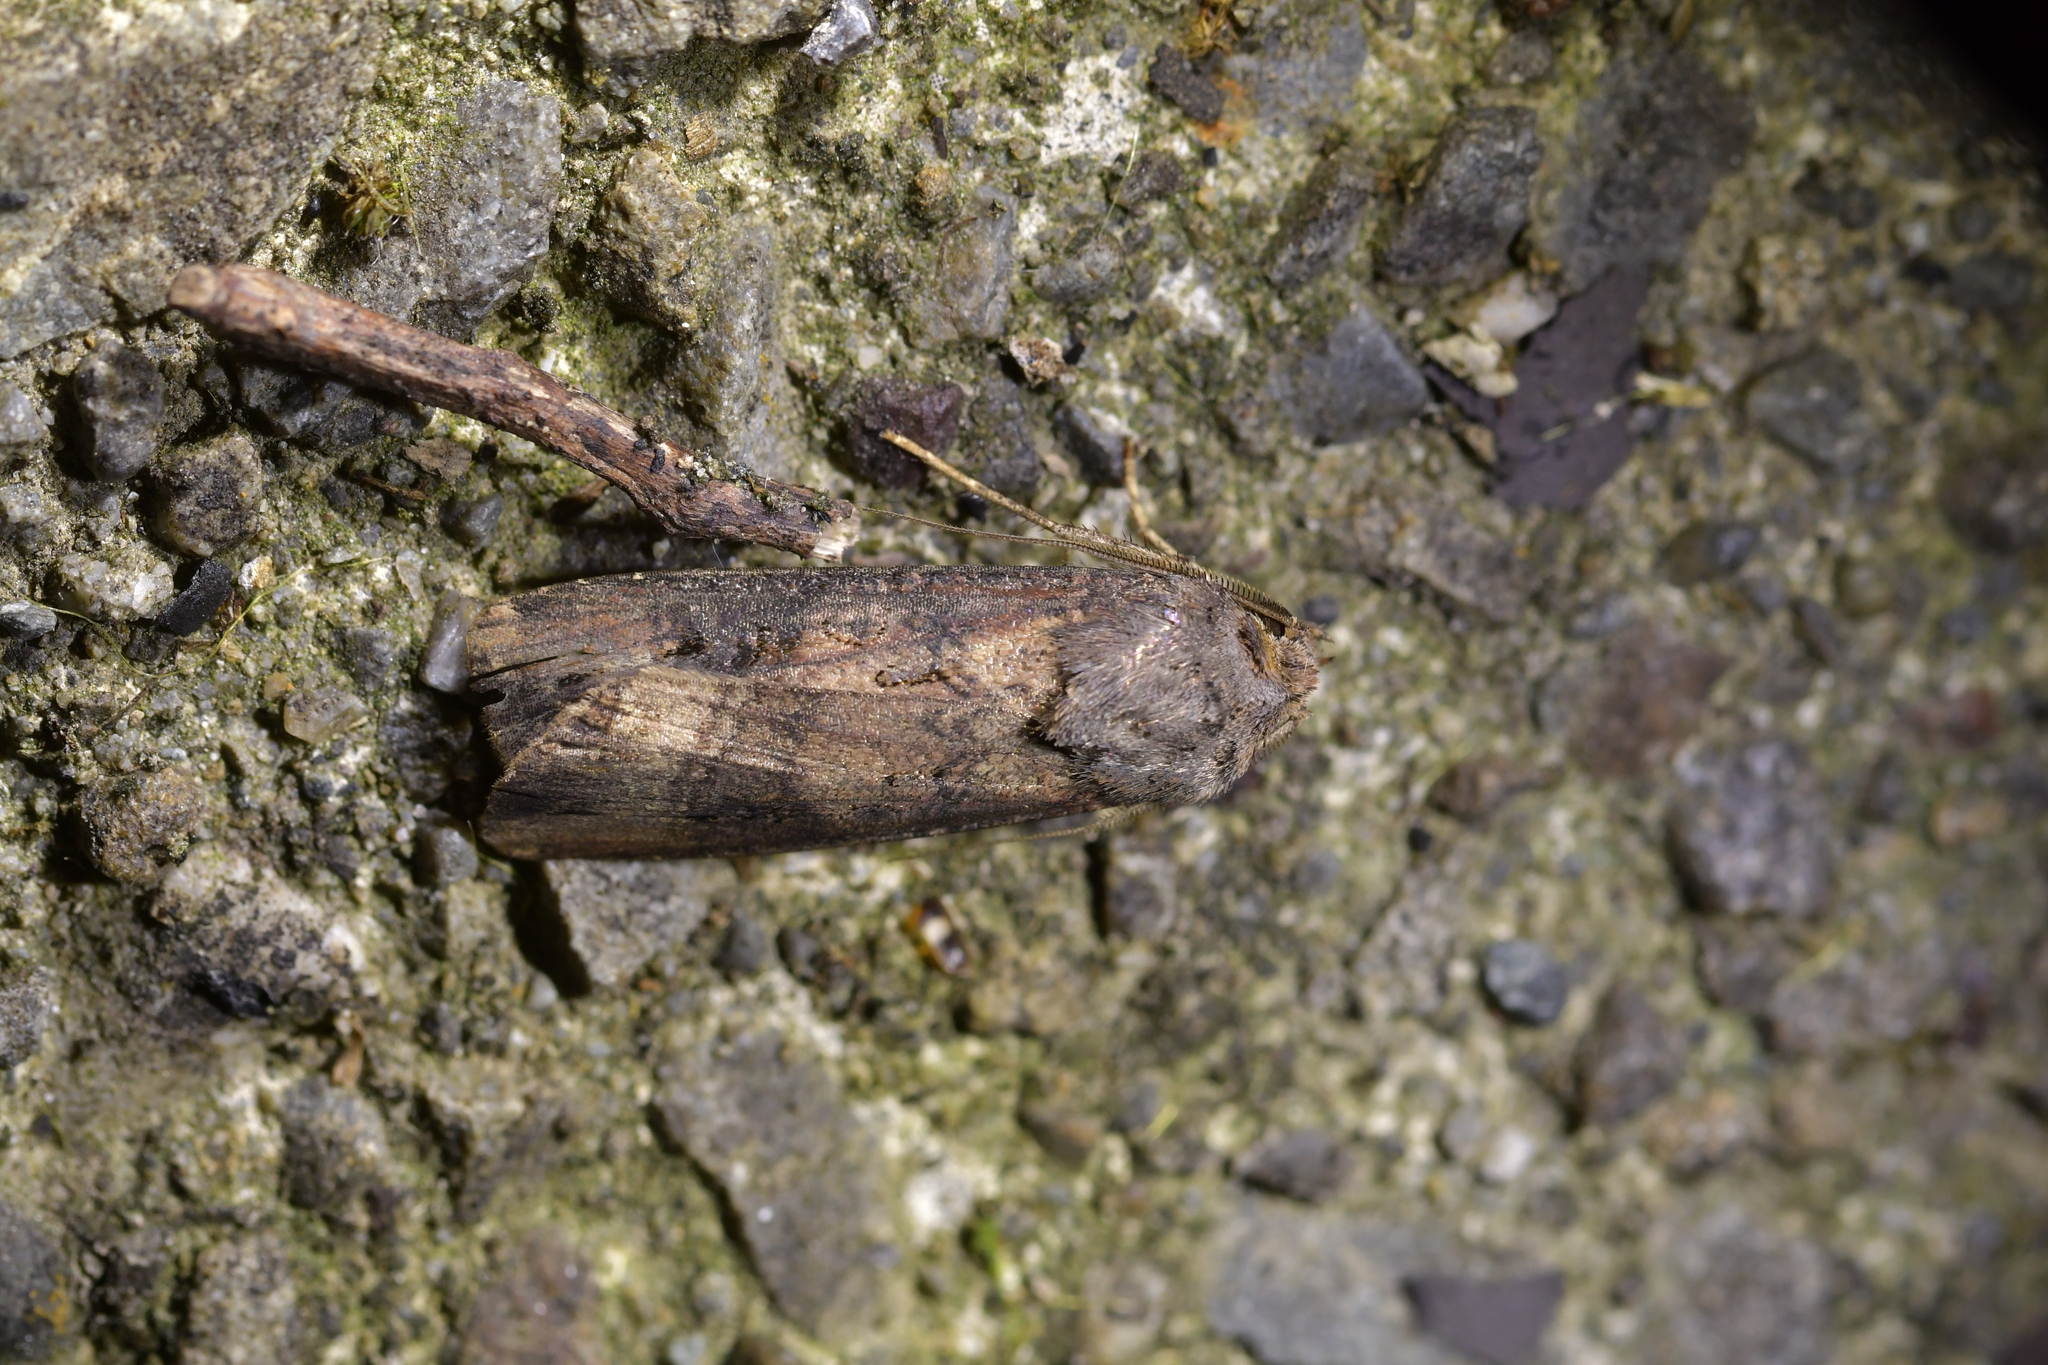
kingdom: Animalia
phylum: Arthropoda
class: Insecta
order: Lepidoptera
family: Noctuidae
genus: Agrotis
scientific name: Agrotis ipsilon
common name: Dark sword-grass
